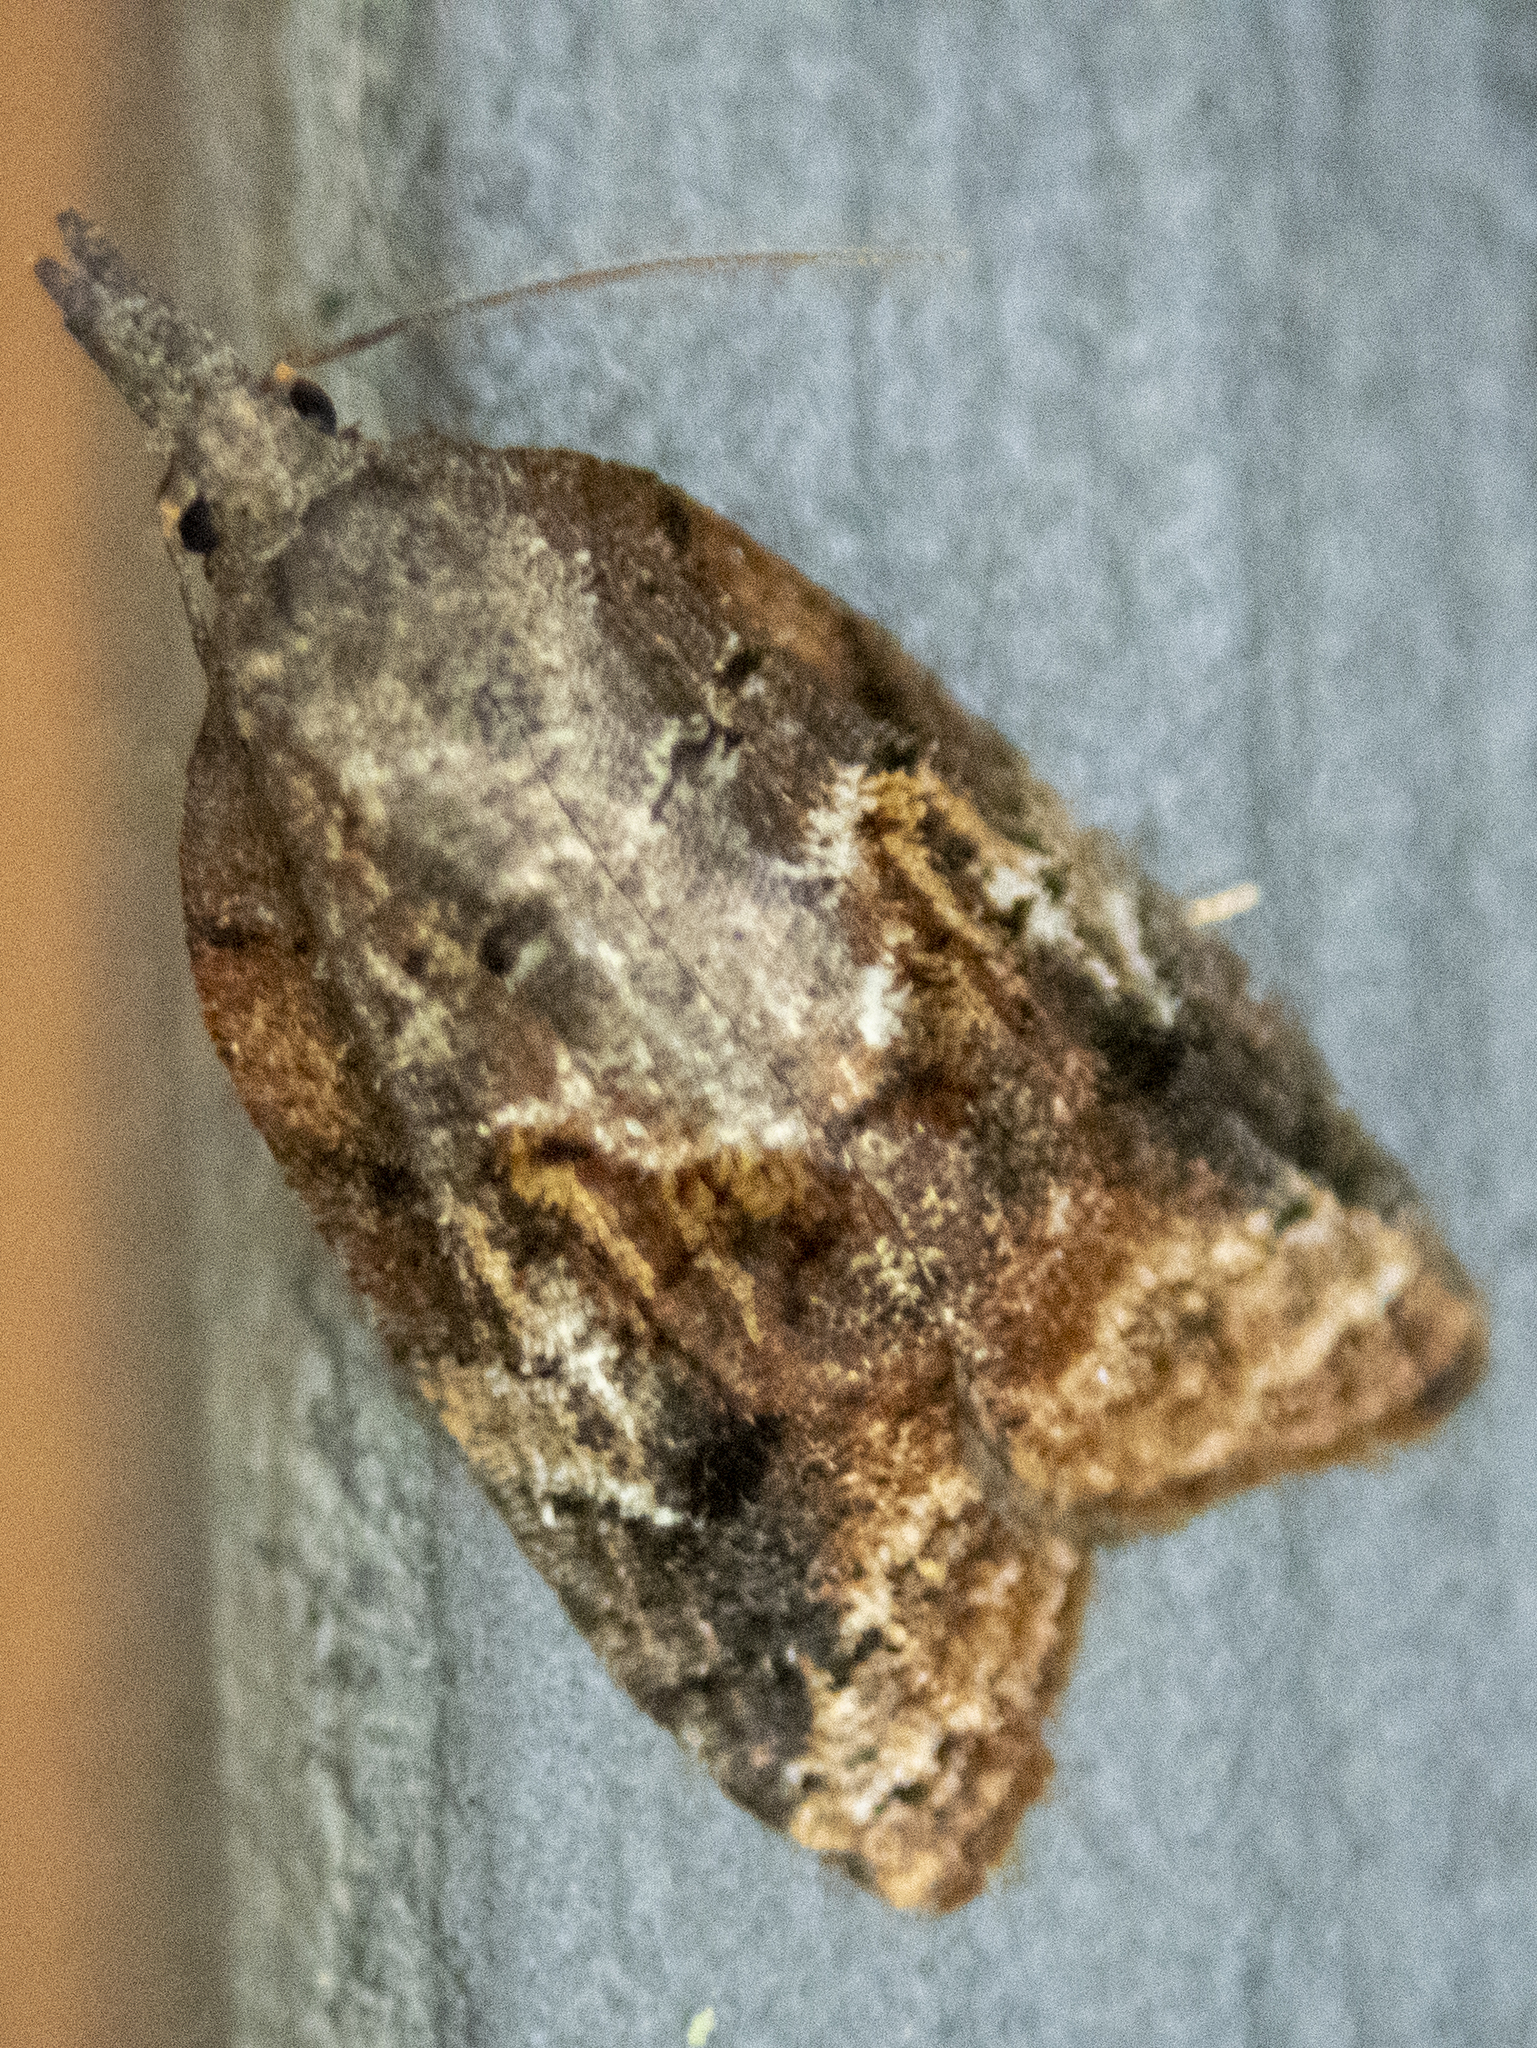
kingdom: Animalia
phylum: Arthropoda
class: Insecta
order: Lepidoptera
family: Tortricidae
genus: Platynota
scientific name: Platynota idaeusalis
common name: Tufted apple bud moth
